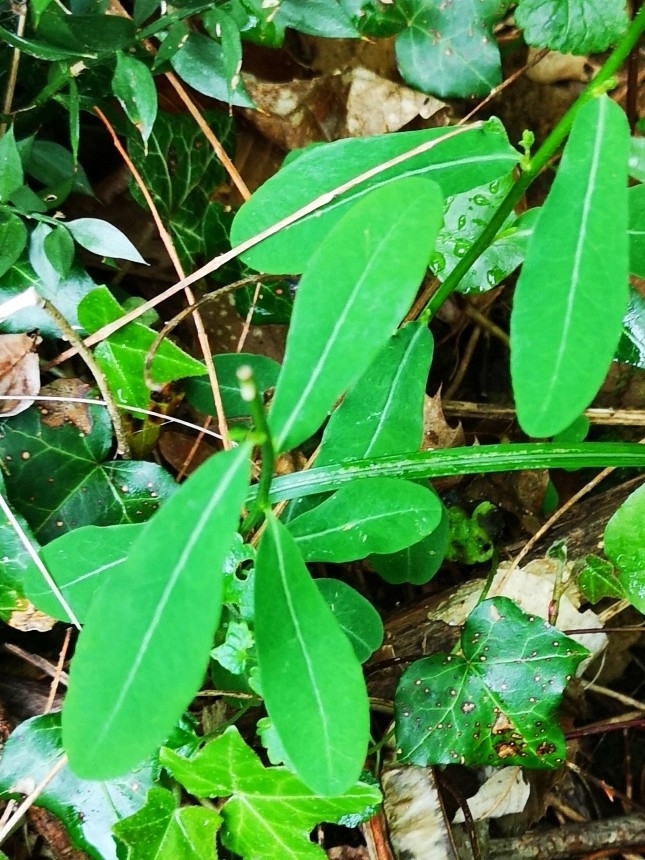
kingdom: Plantae
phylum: Tracheophyta
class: Magnoliopsida
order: Malpighiales
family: Euphorbiaceae
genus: Euphorbia
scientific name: Euphorbia dulcis
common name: Sweet spurge
